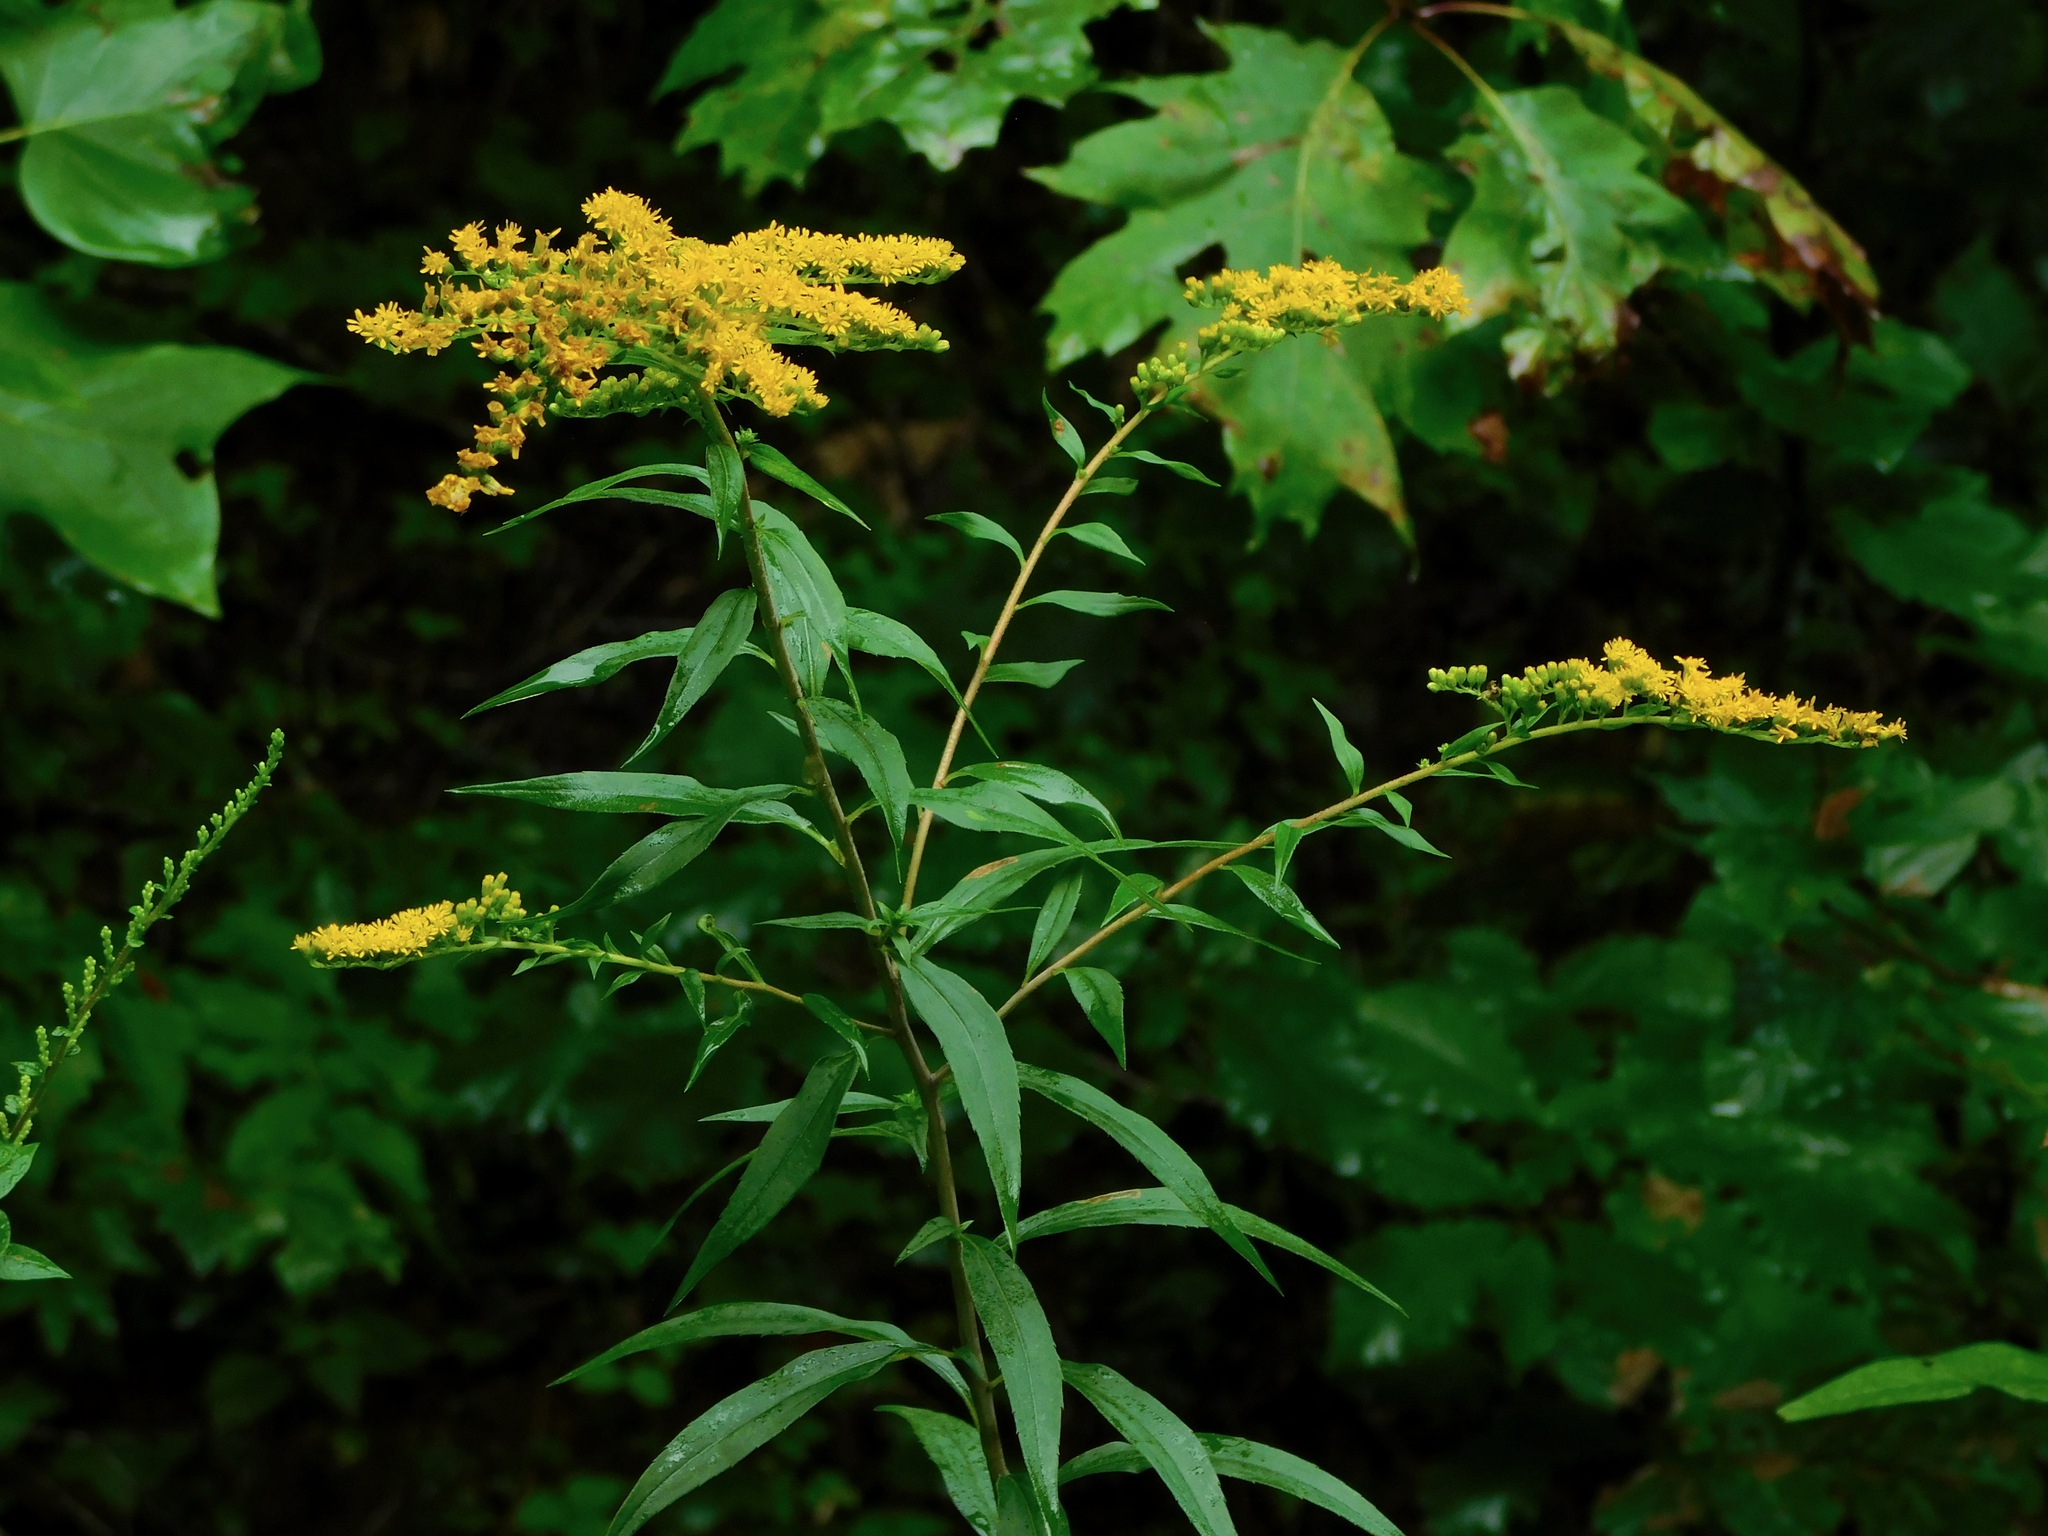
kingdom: Plantae
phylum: Tracheophyta
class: Magnoliopsida
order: Asterales
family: Asteraceae
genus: Solidago
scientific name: Solidago gigantea
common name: Giant goldenrod
